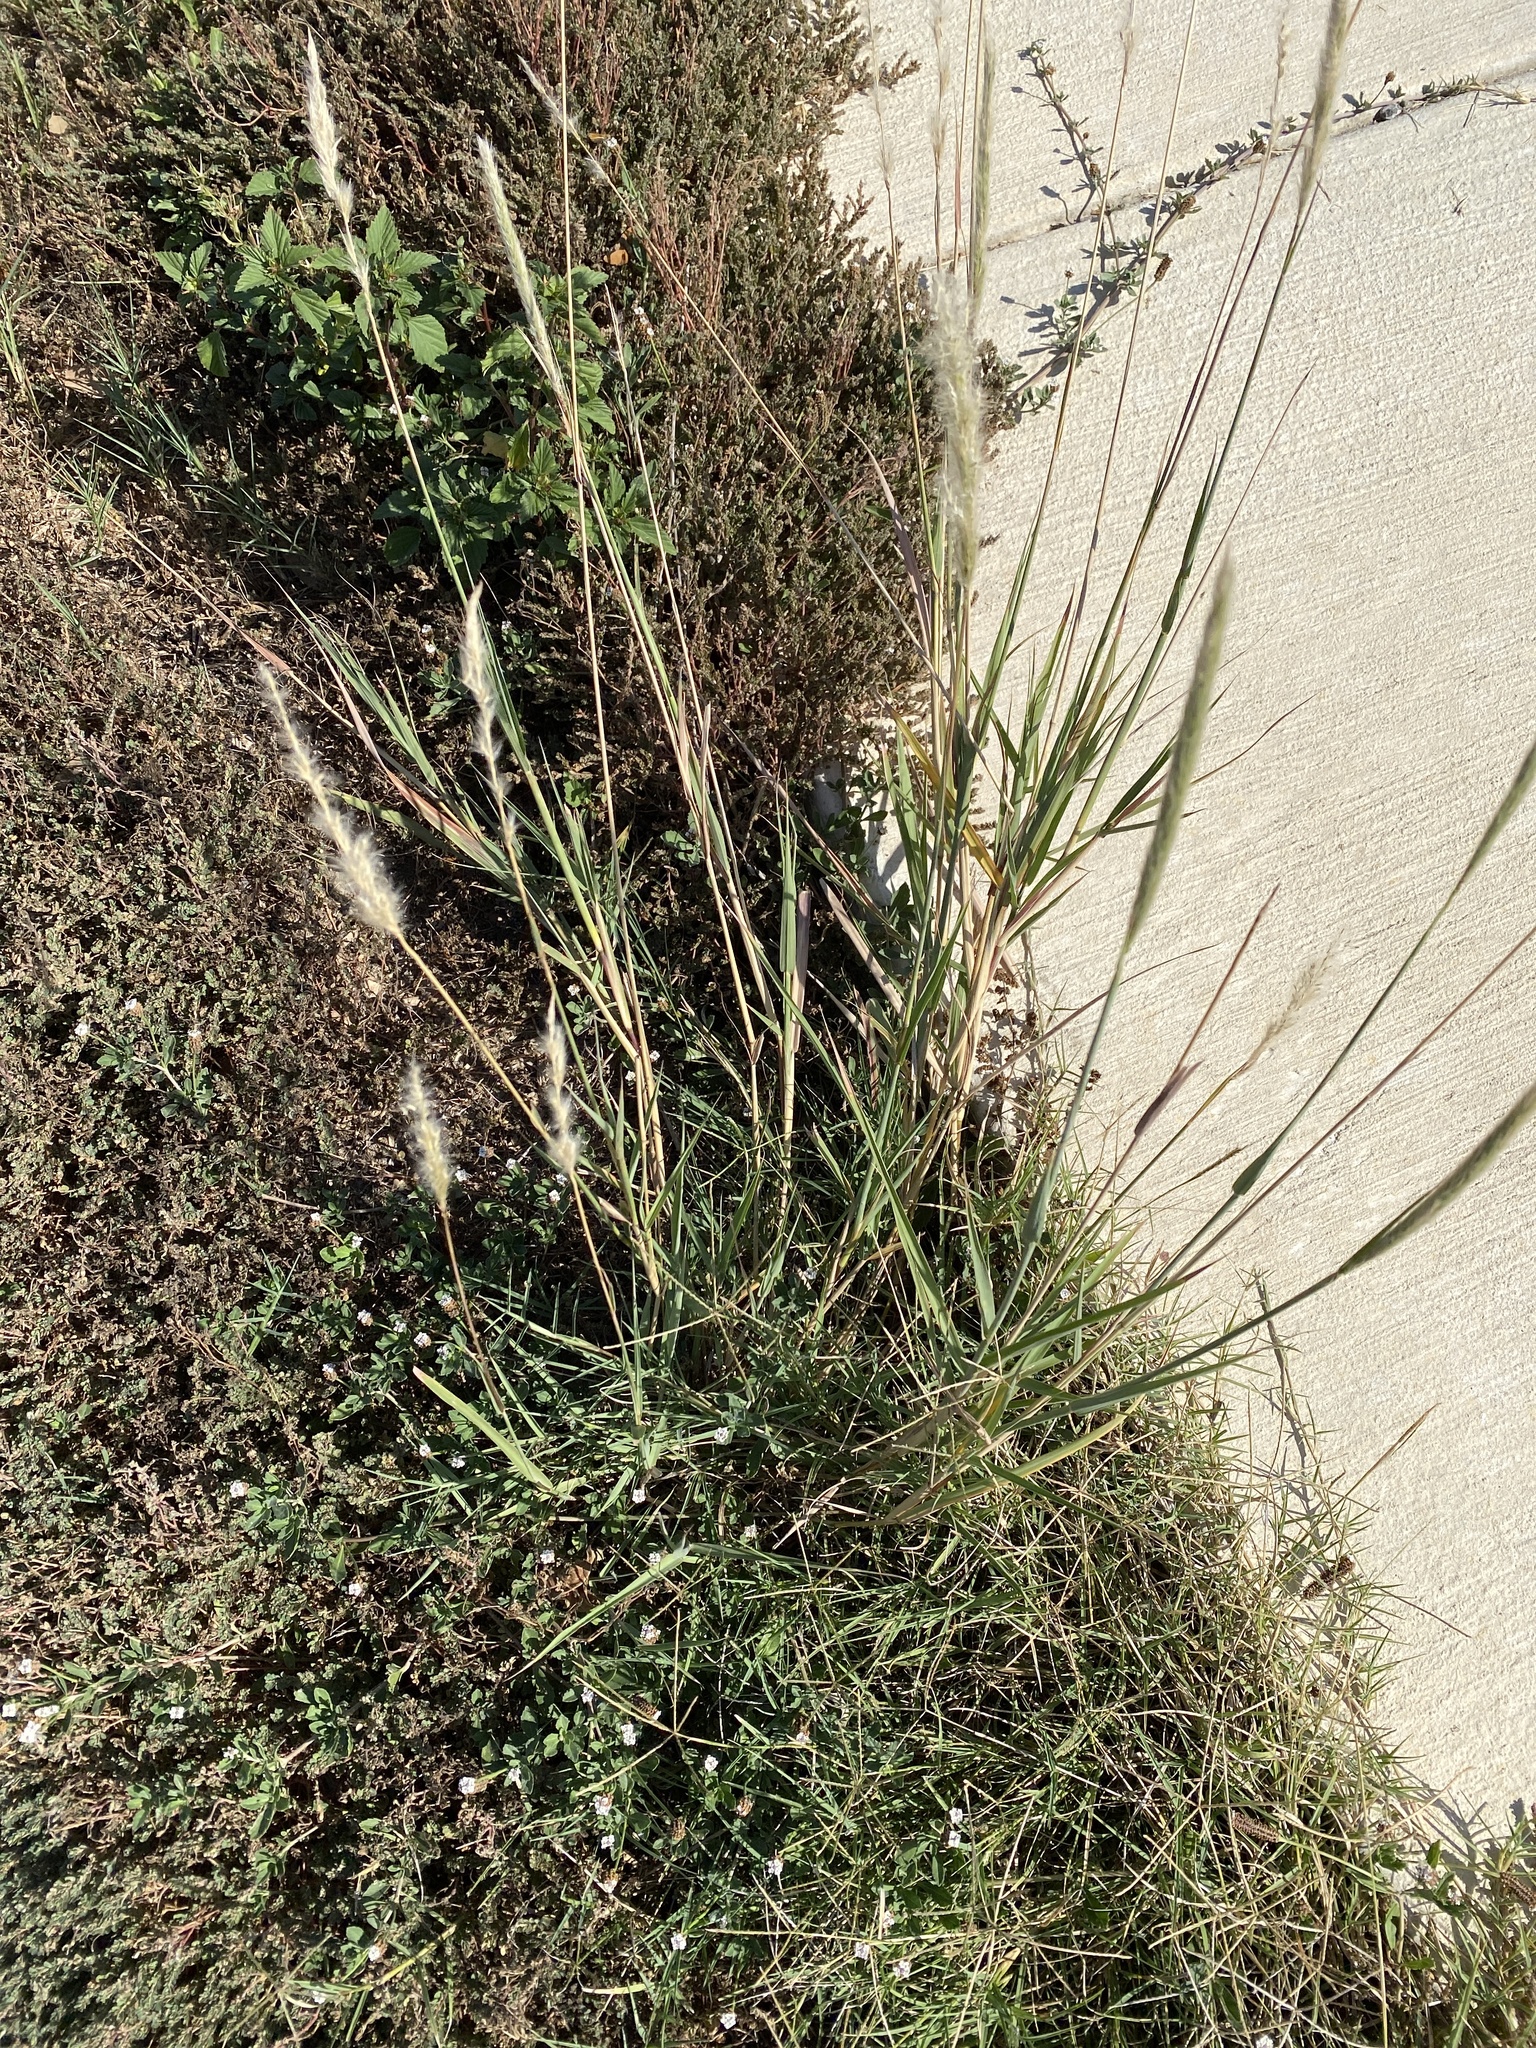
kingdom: Plantae
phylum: Tracheophyta
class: Liliopsida
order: Poales
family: Poaceae
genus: Bothriochloa
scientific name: Bothriochloa torreyana
